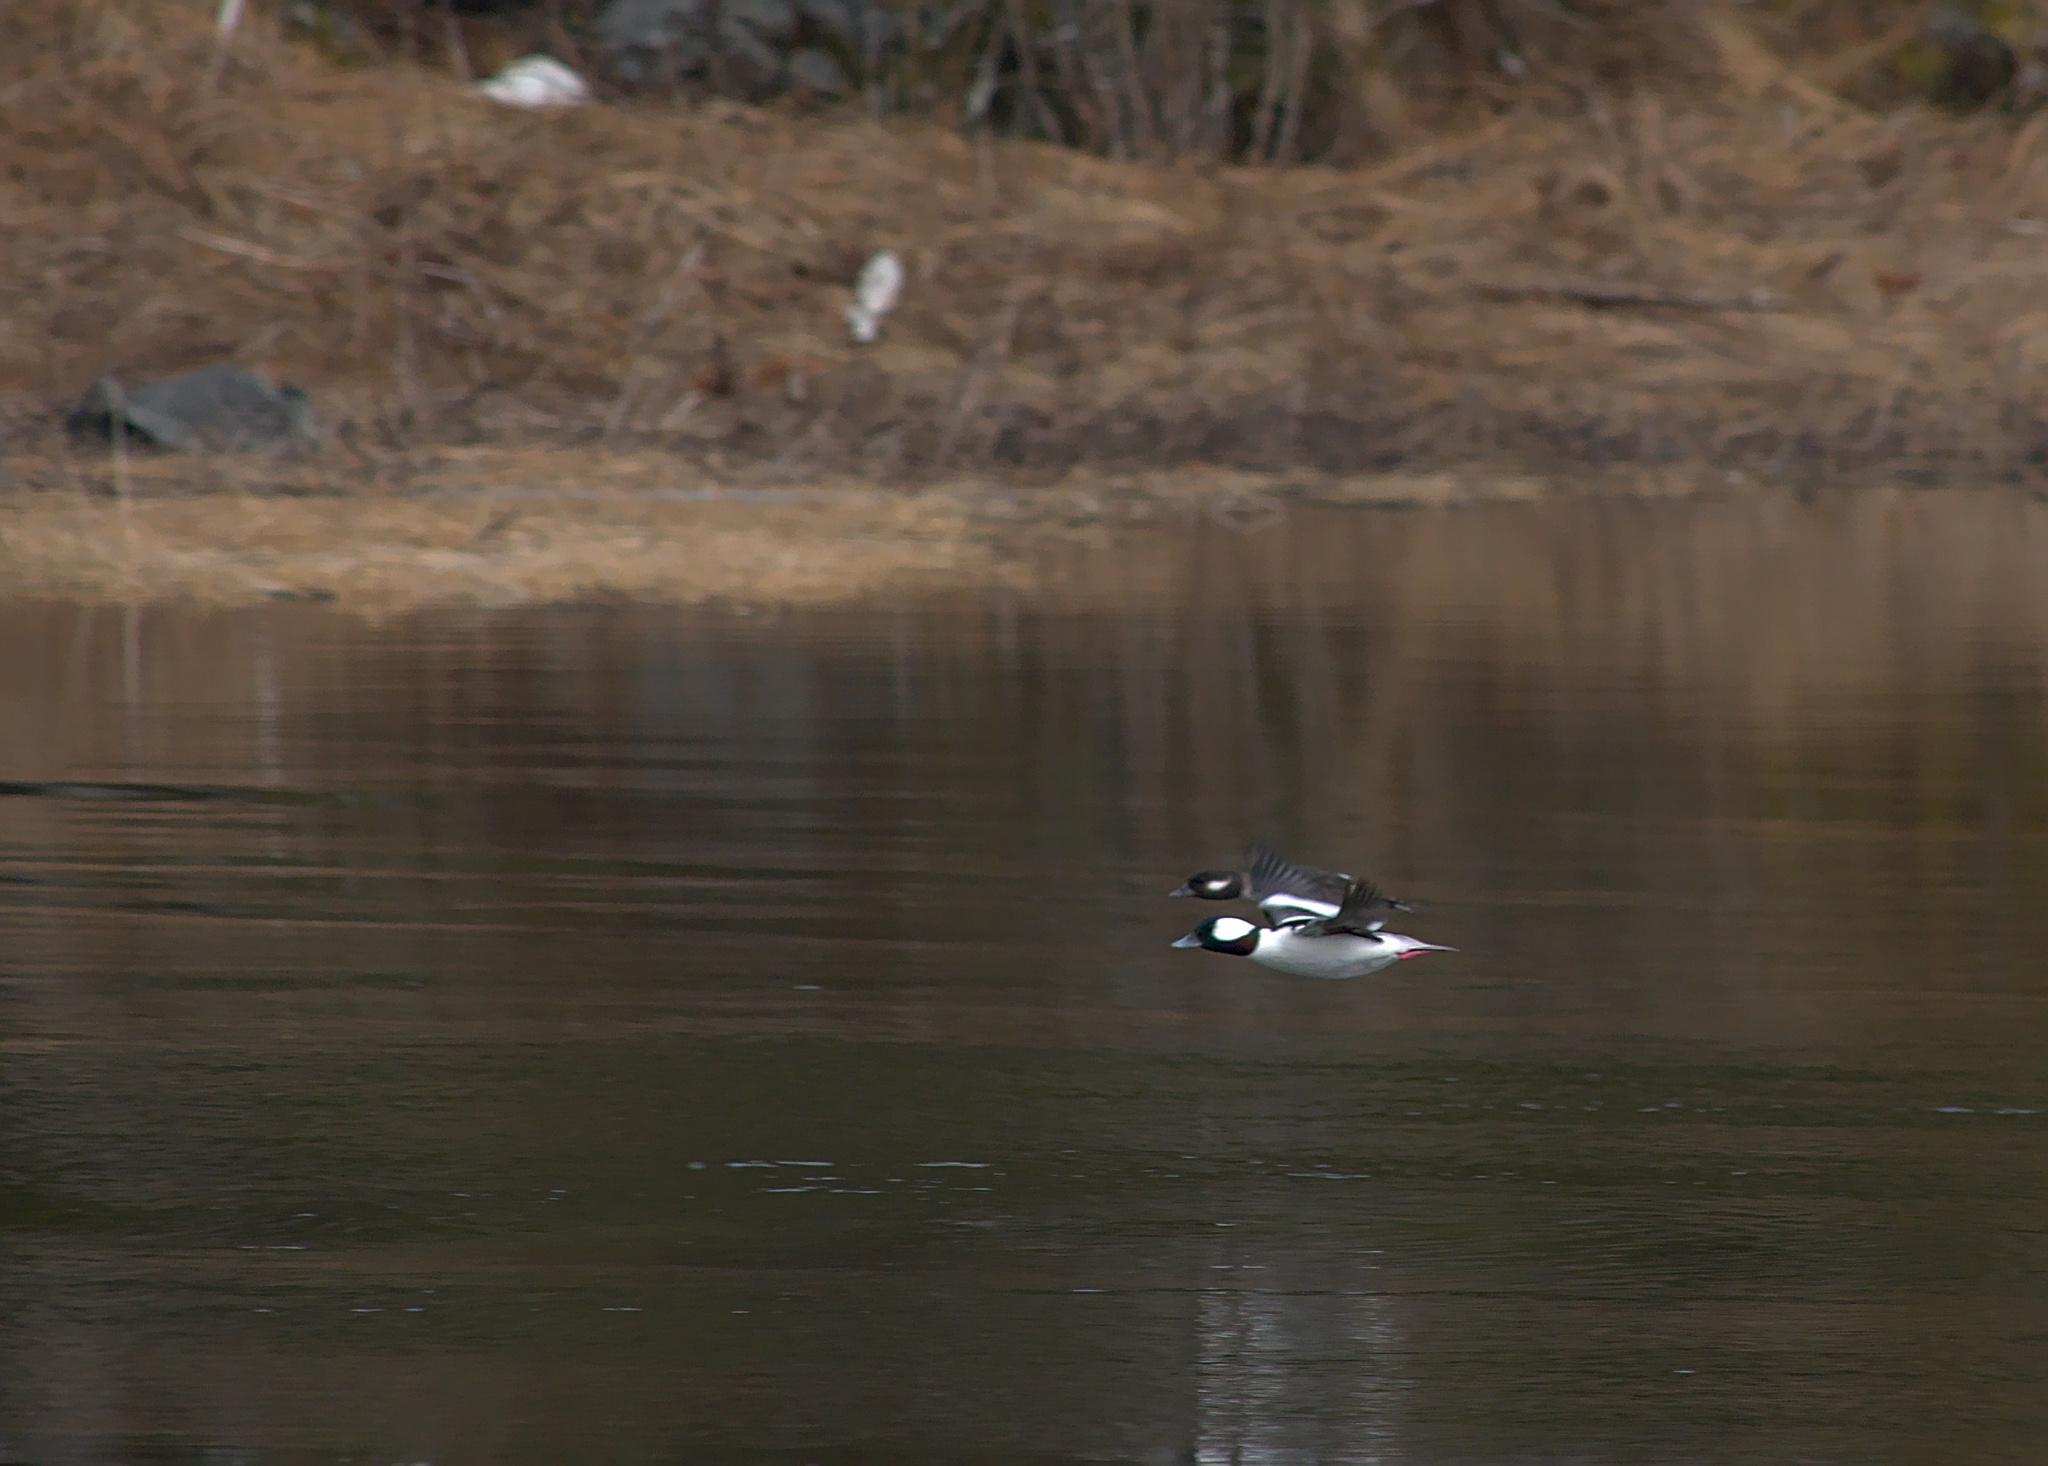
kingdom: Animalia
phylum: Chordata
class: Aves
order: Anseriformes
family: Anatidae
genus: Bucephala
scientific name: Bucephala albeola
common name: Bufflehead
